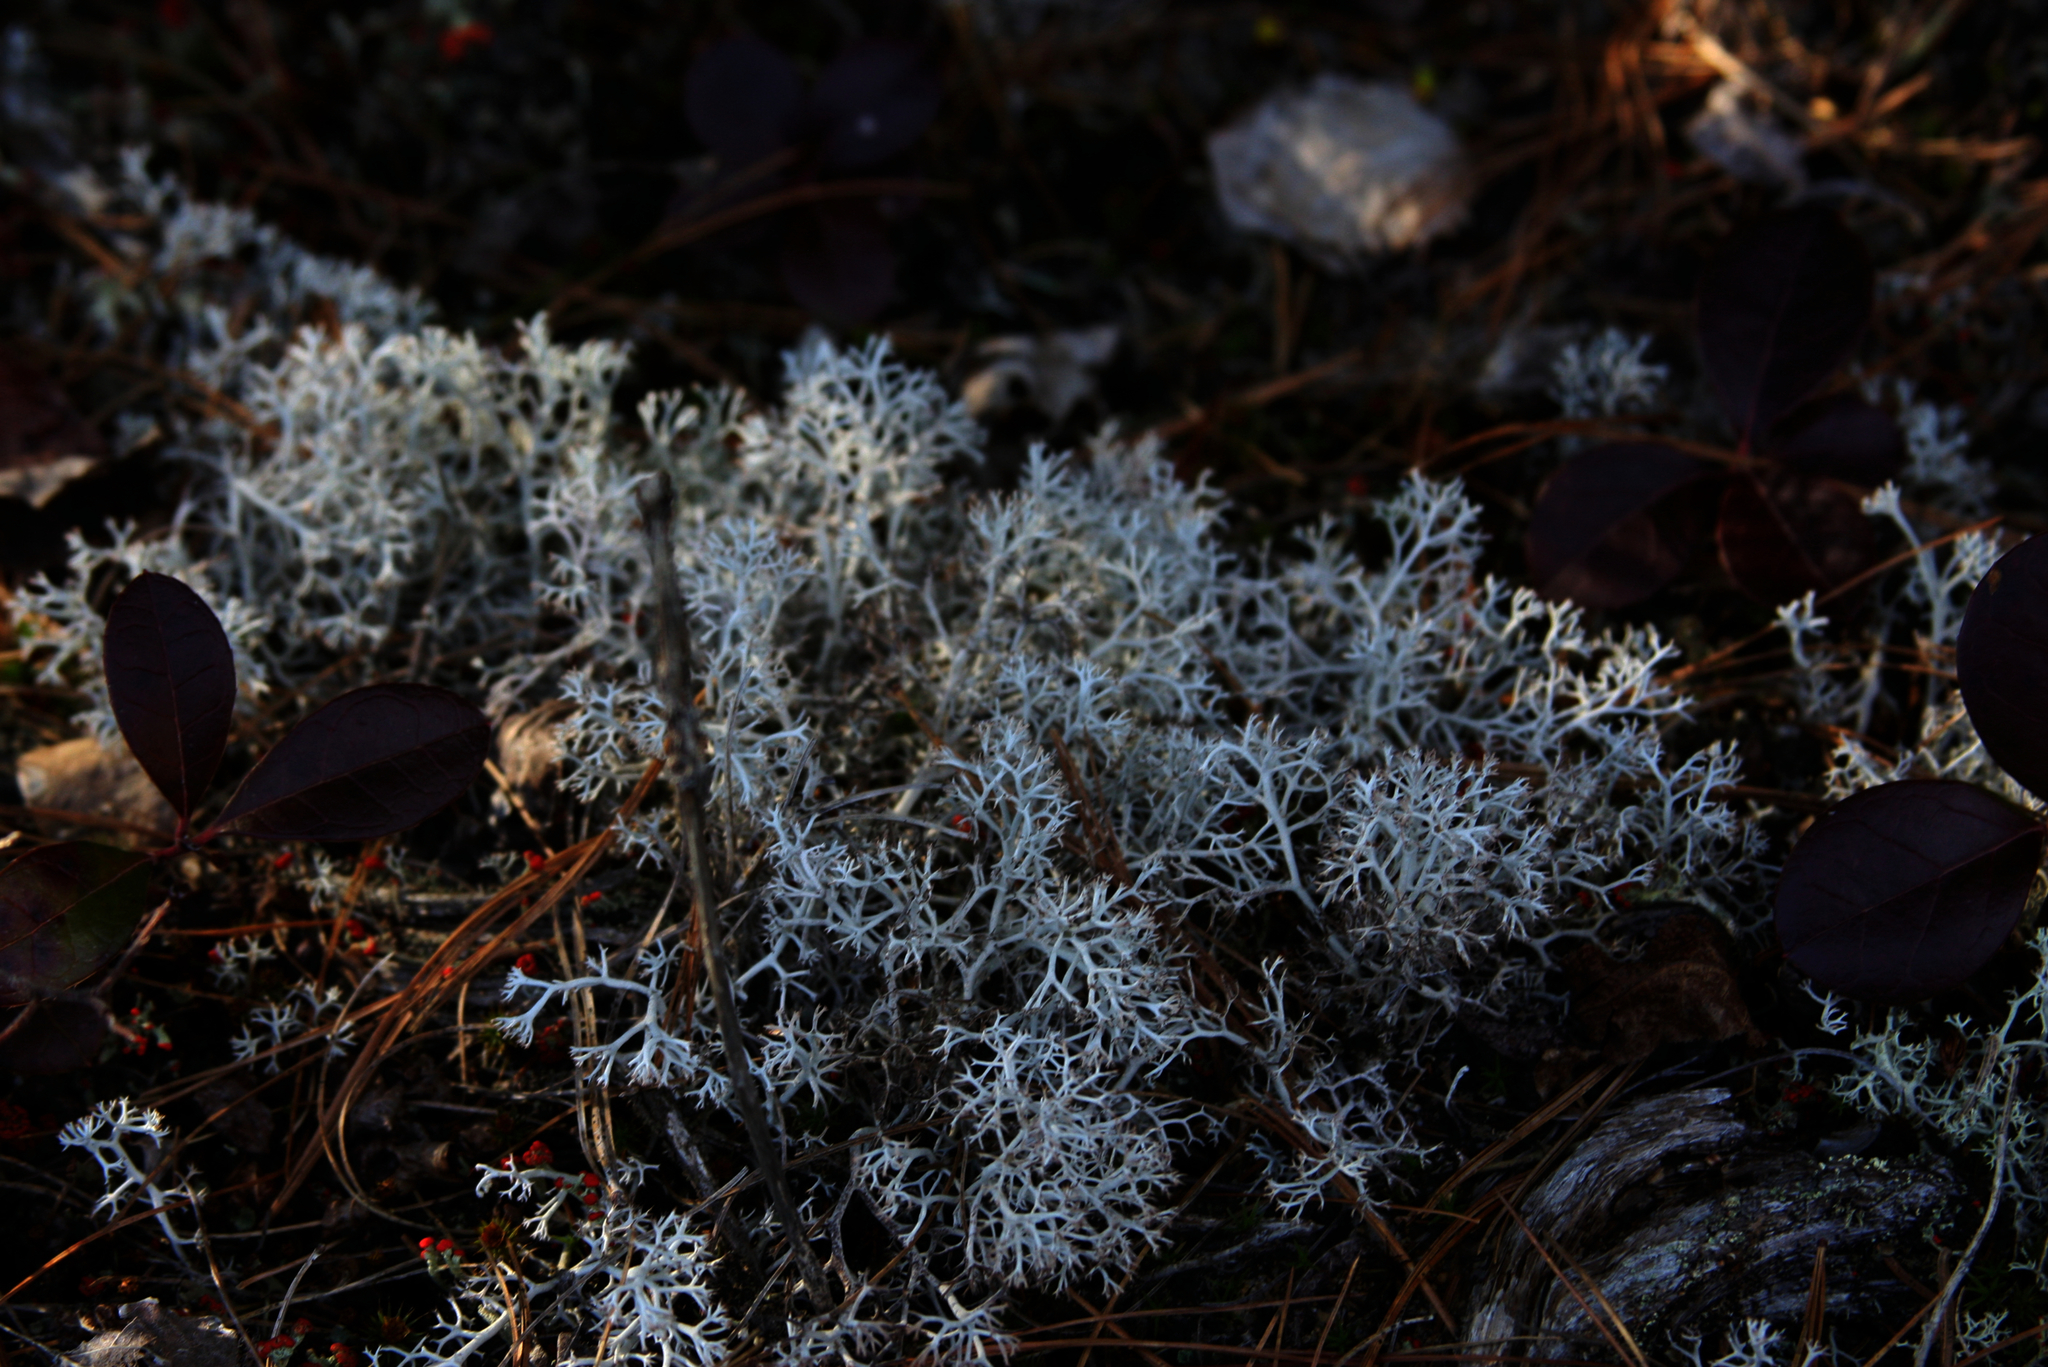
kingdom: Plantae
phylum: Tracheophyta
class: Magnoliopsida
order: Ericales
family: Ericaceae
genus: Gaultheria
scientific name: Gaultheria procumbens
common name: Checkerberry
